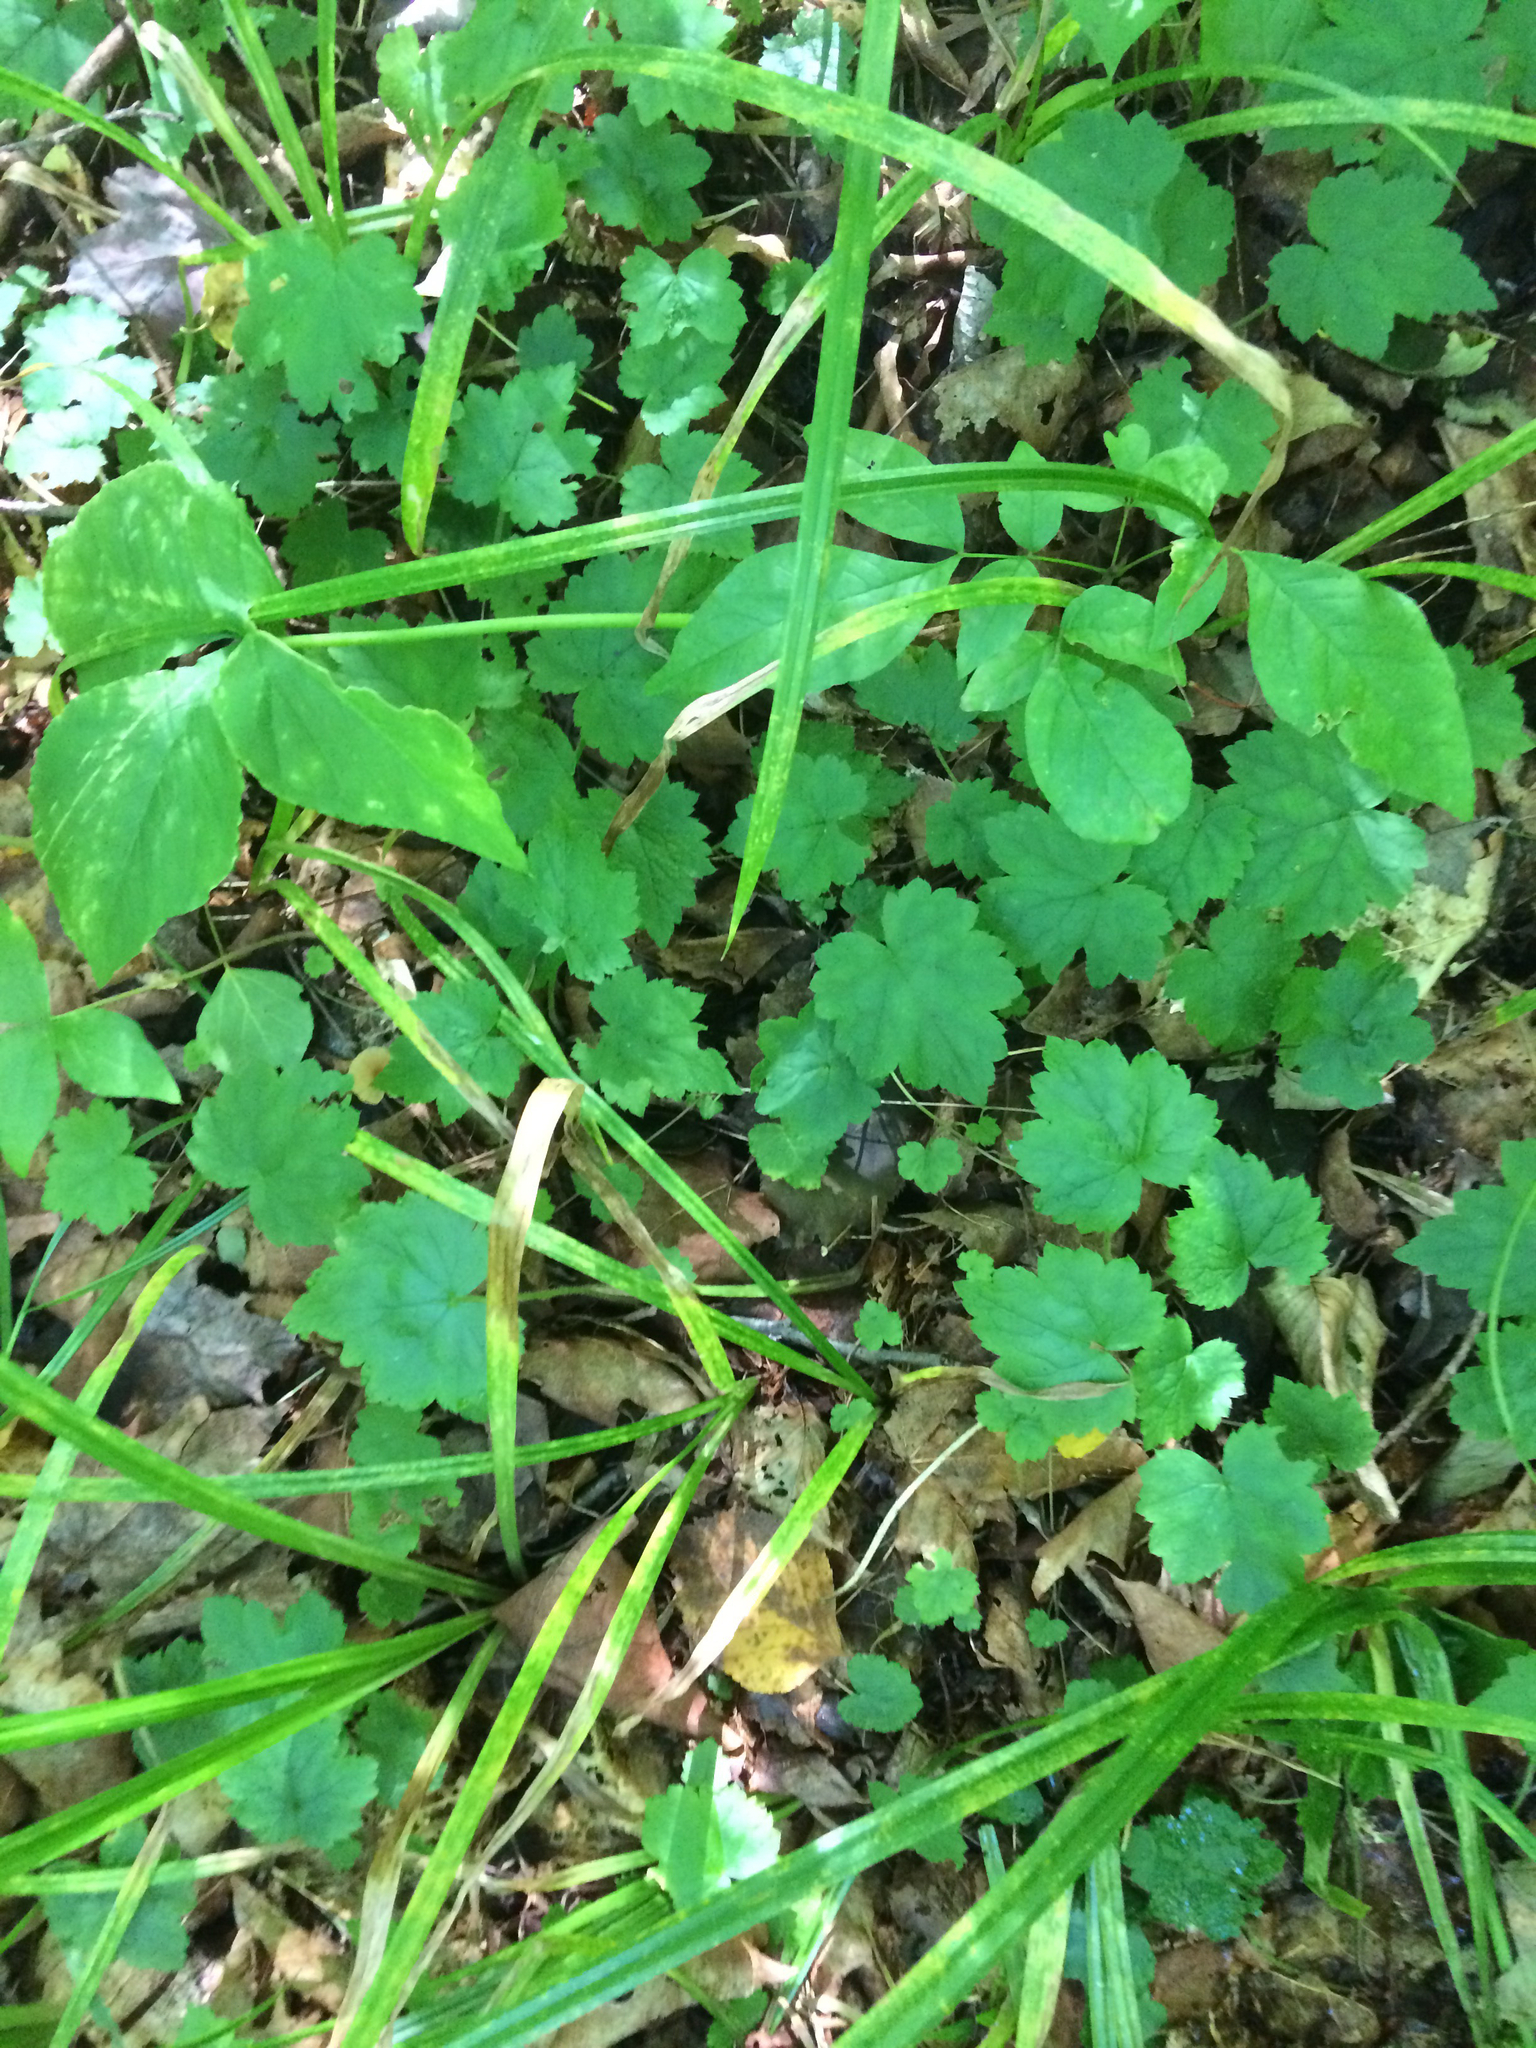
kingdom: Plantae
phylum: Tracheophyta
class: Magnoliopsida
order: Saxifragales
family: Saxifragaceae
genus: Tiarella
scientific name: Tiarella stolonifera
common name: Stoloniferous foamflower
